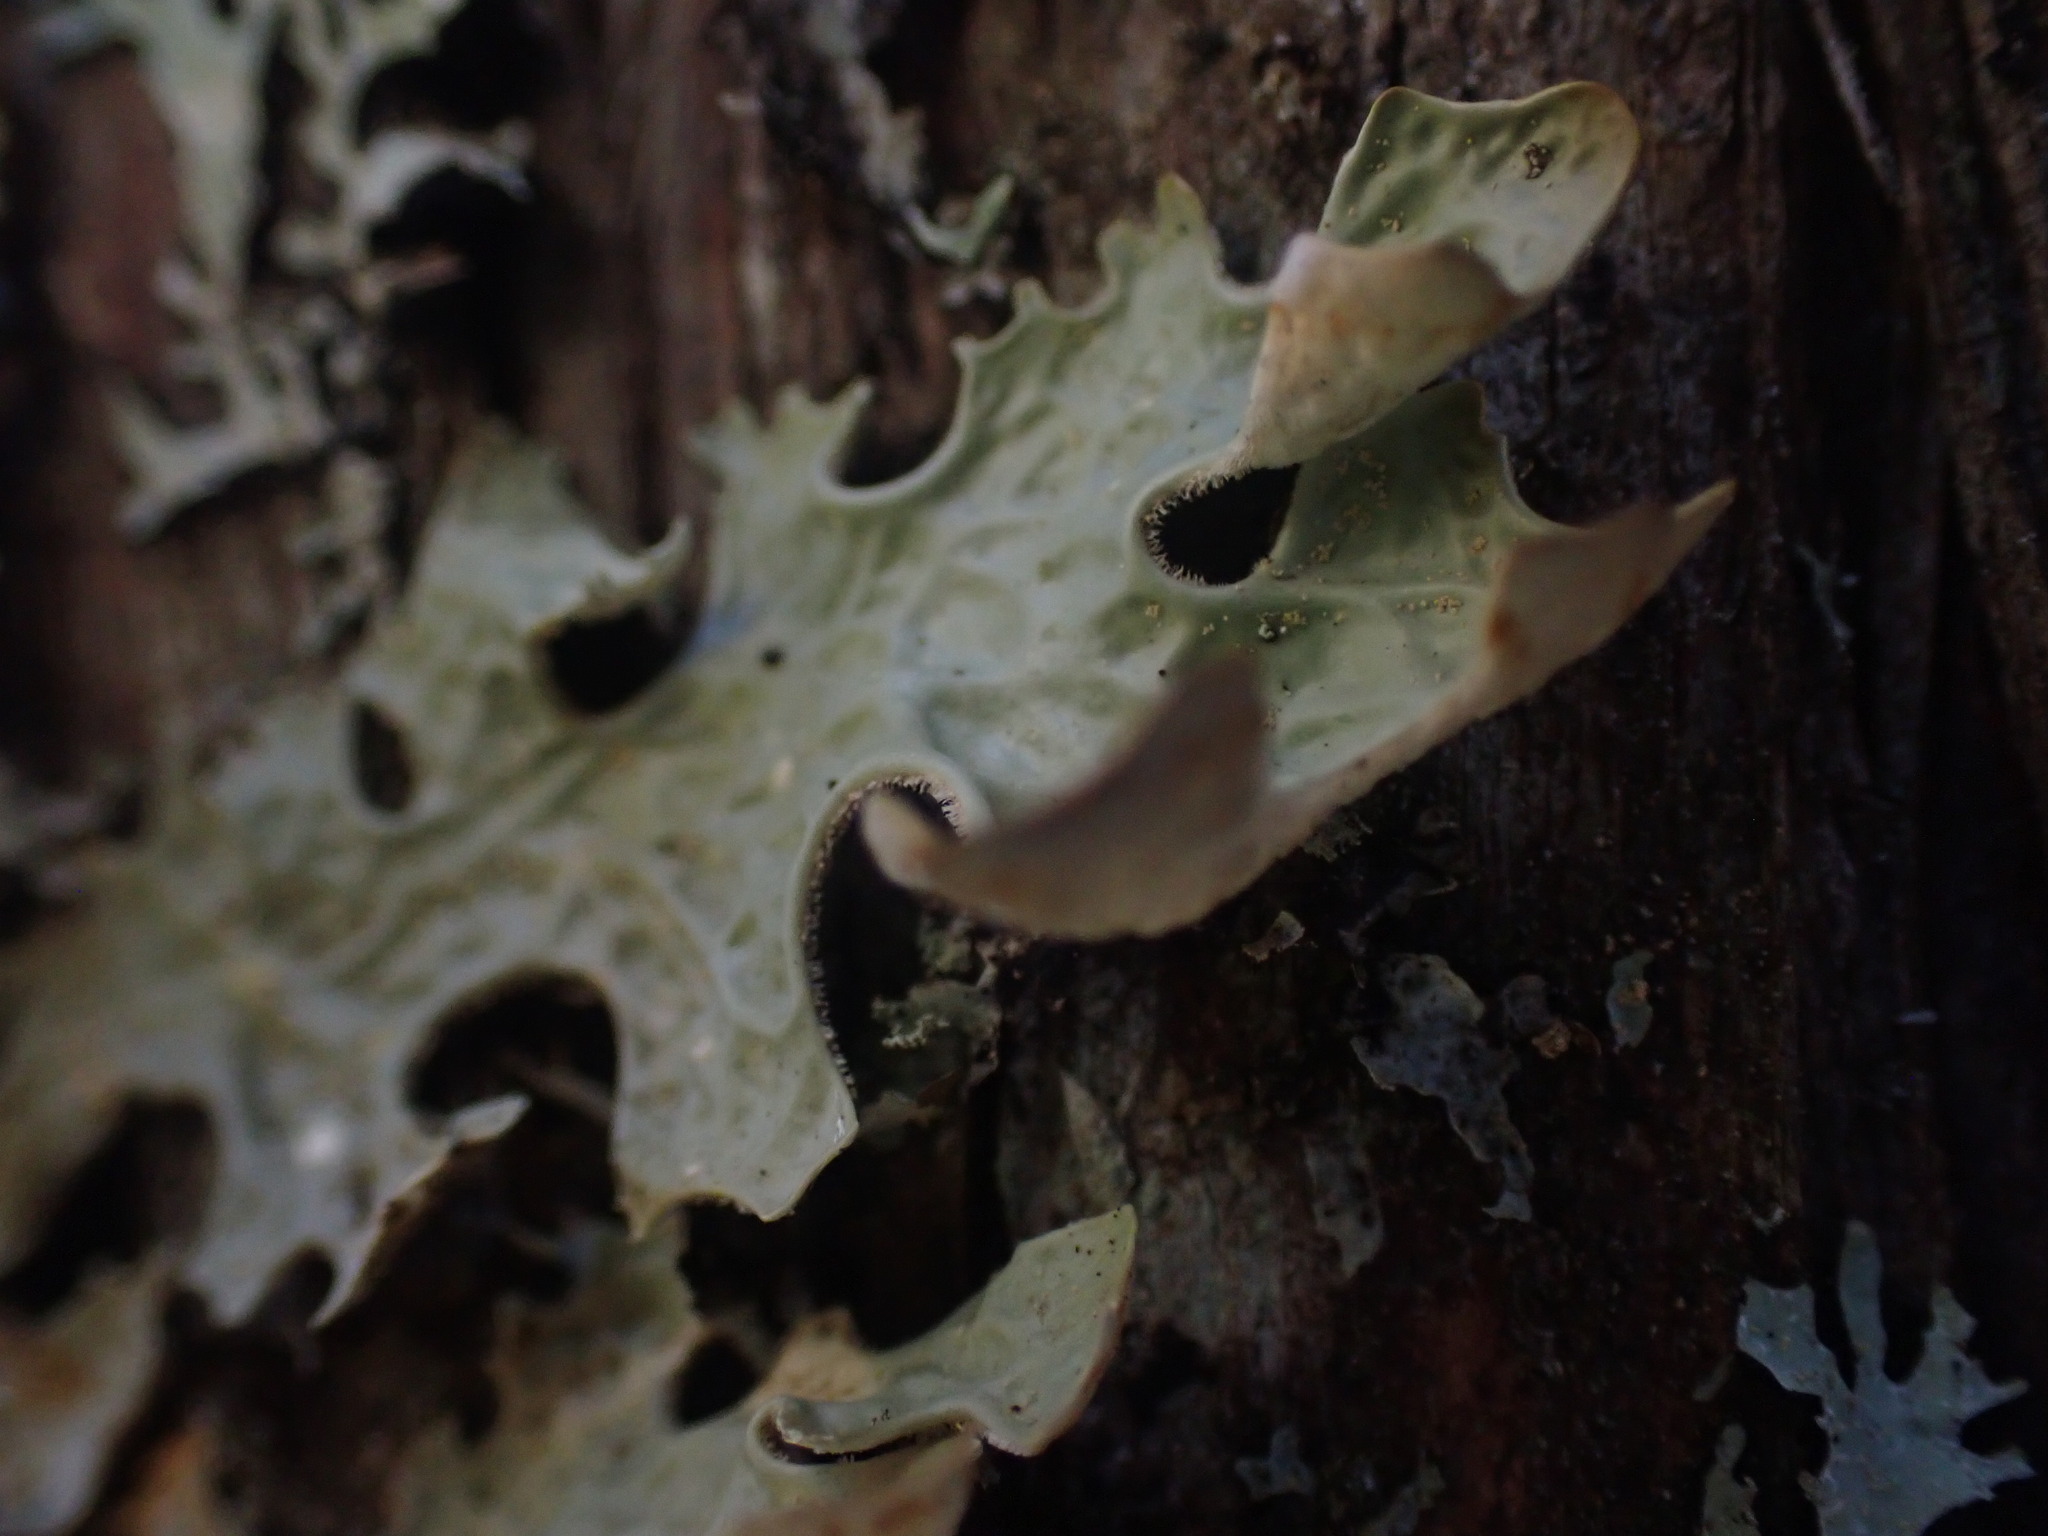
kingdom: Fungi
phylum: Ascomycota
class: Lecanoromycetes
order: Peltigerales
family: Lobariaceae
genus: Lobaria
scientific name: Lobaria pulmonaria
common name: Lungwort
